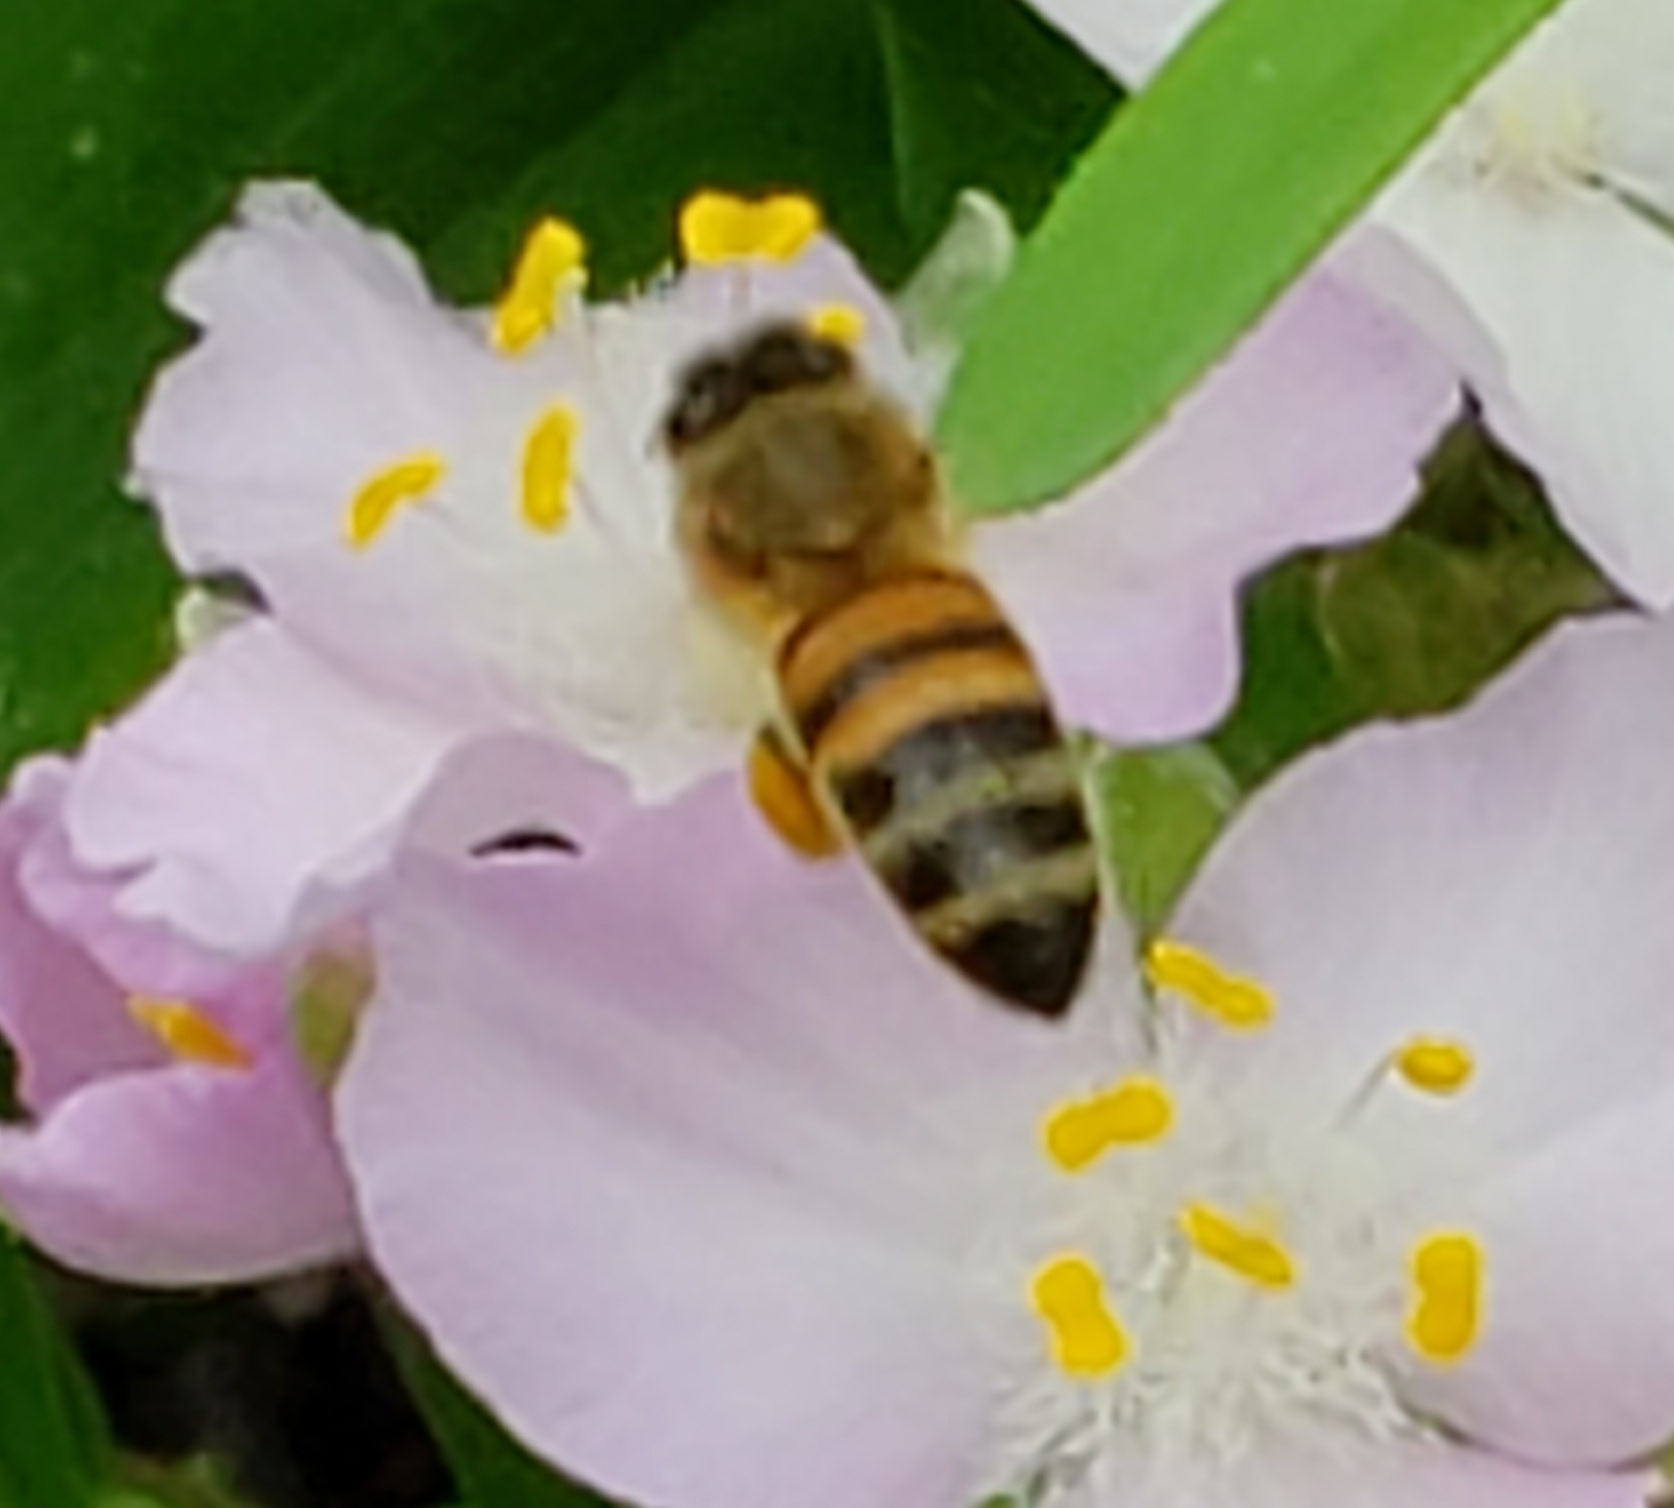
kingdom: Animalia
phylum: Arthropoda
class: Insecta
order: Hymenoptera
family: Apidae
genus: Apis
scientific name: Apis mellifera
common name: Honey bee
